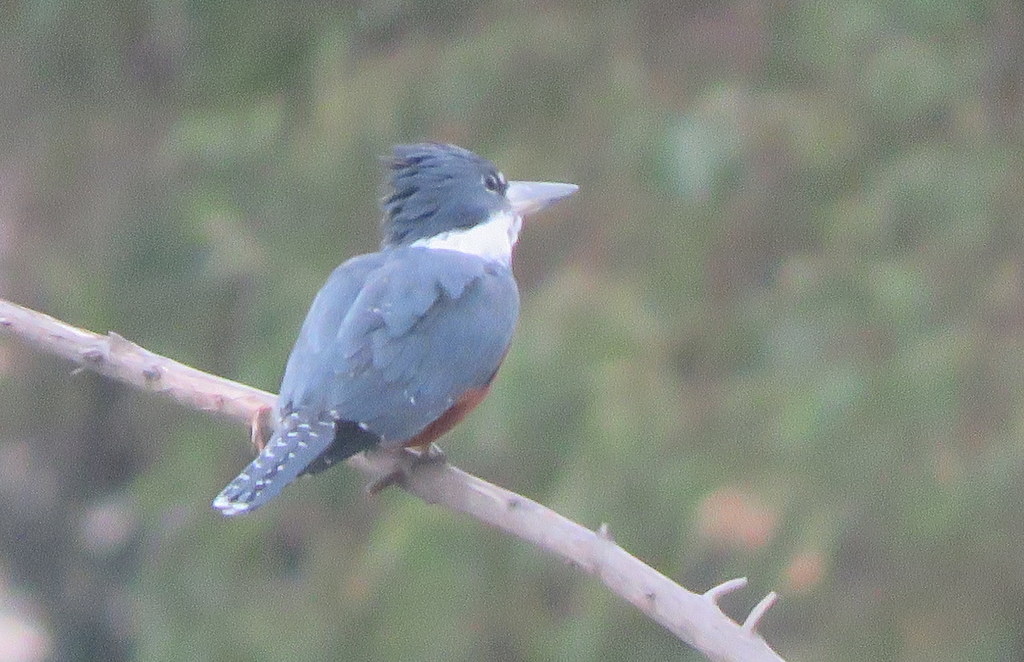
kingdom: Animalia
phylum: Chordata
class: Aves
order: Coraciiformes
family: Alcedinidae
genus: Megaceryle
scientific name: Megaceryle torquata
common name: Ringed kingfisher
